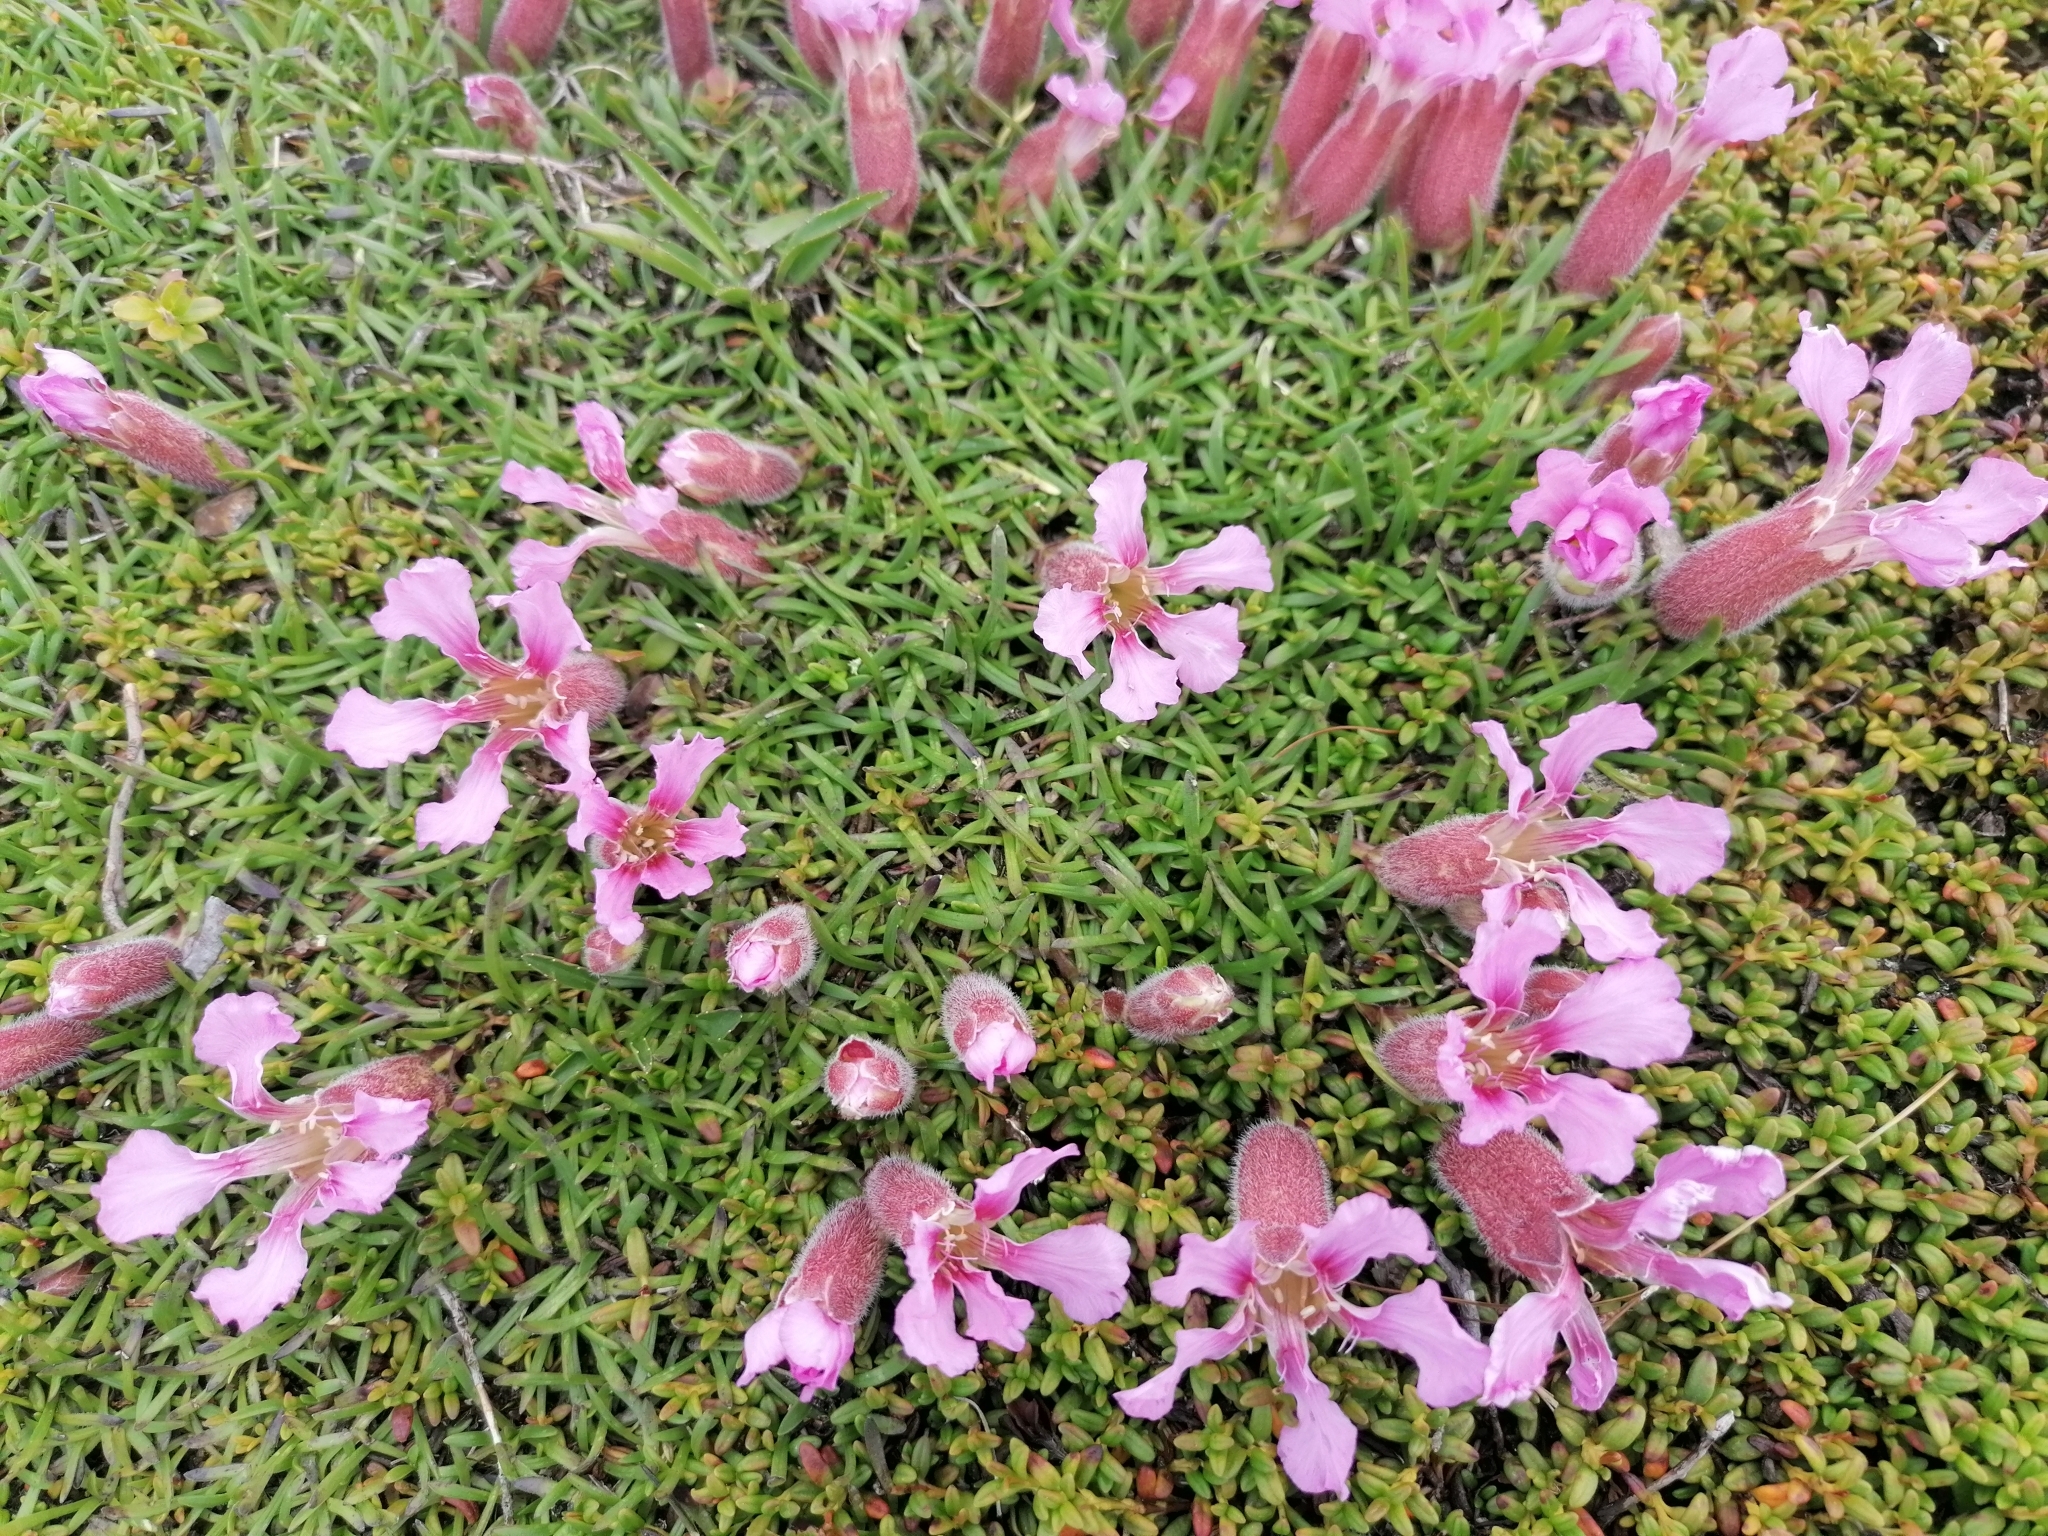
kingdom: Plantae
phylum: Tracheophyta
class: Magnoliopsida
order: Caryophyllales
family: Caryophyllaceae
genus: Saponaria
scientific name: Saponaria pumila
